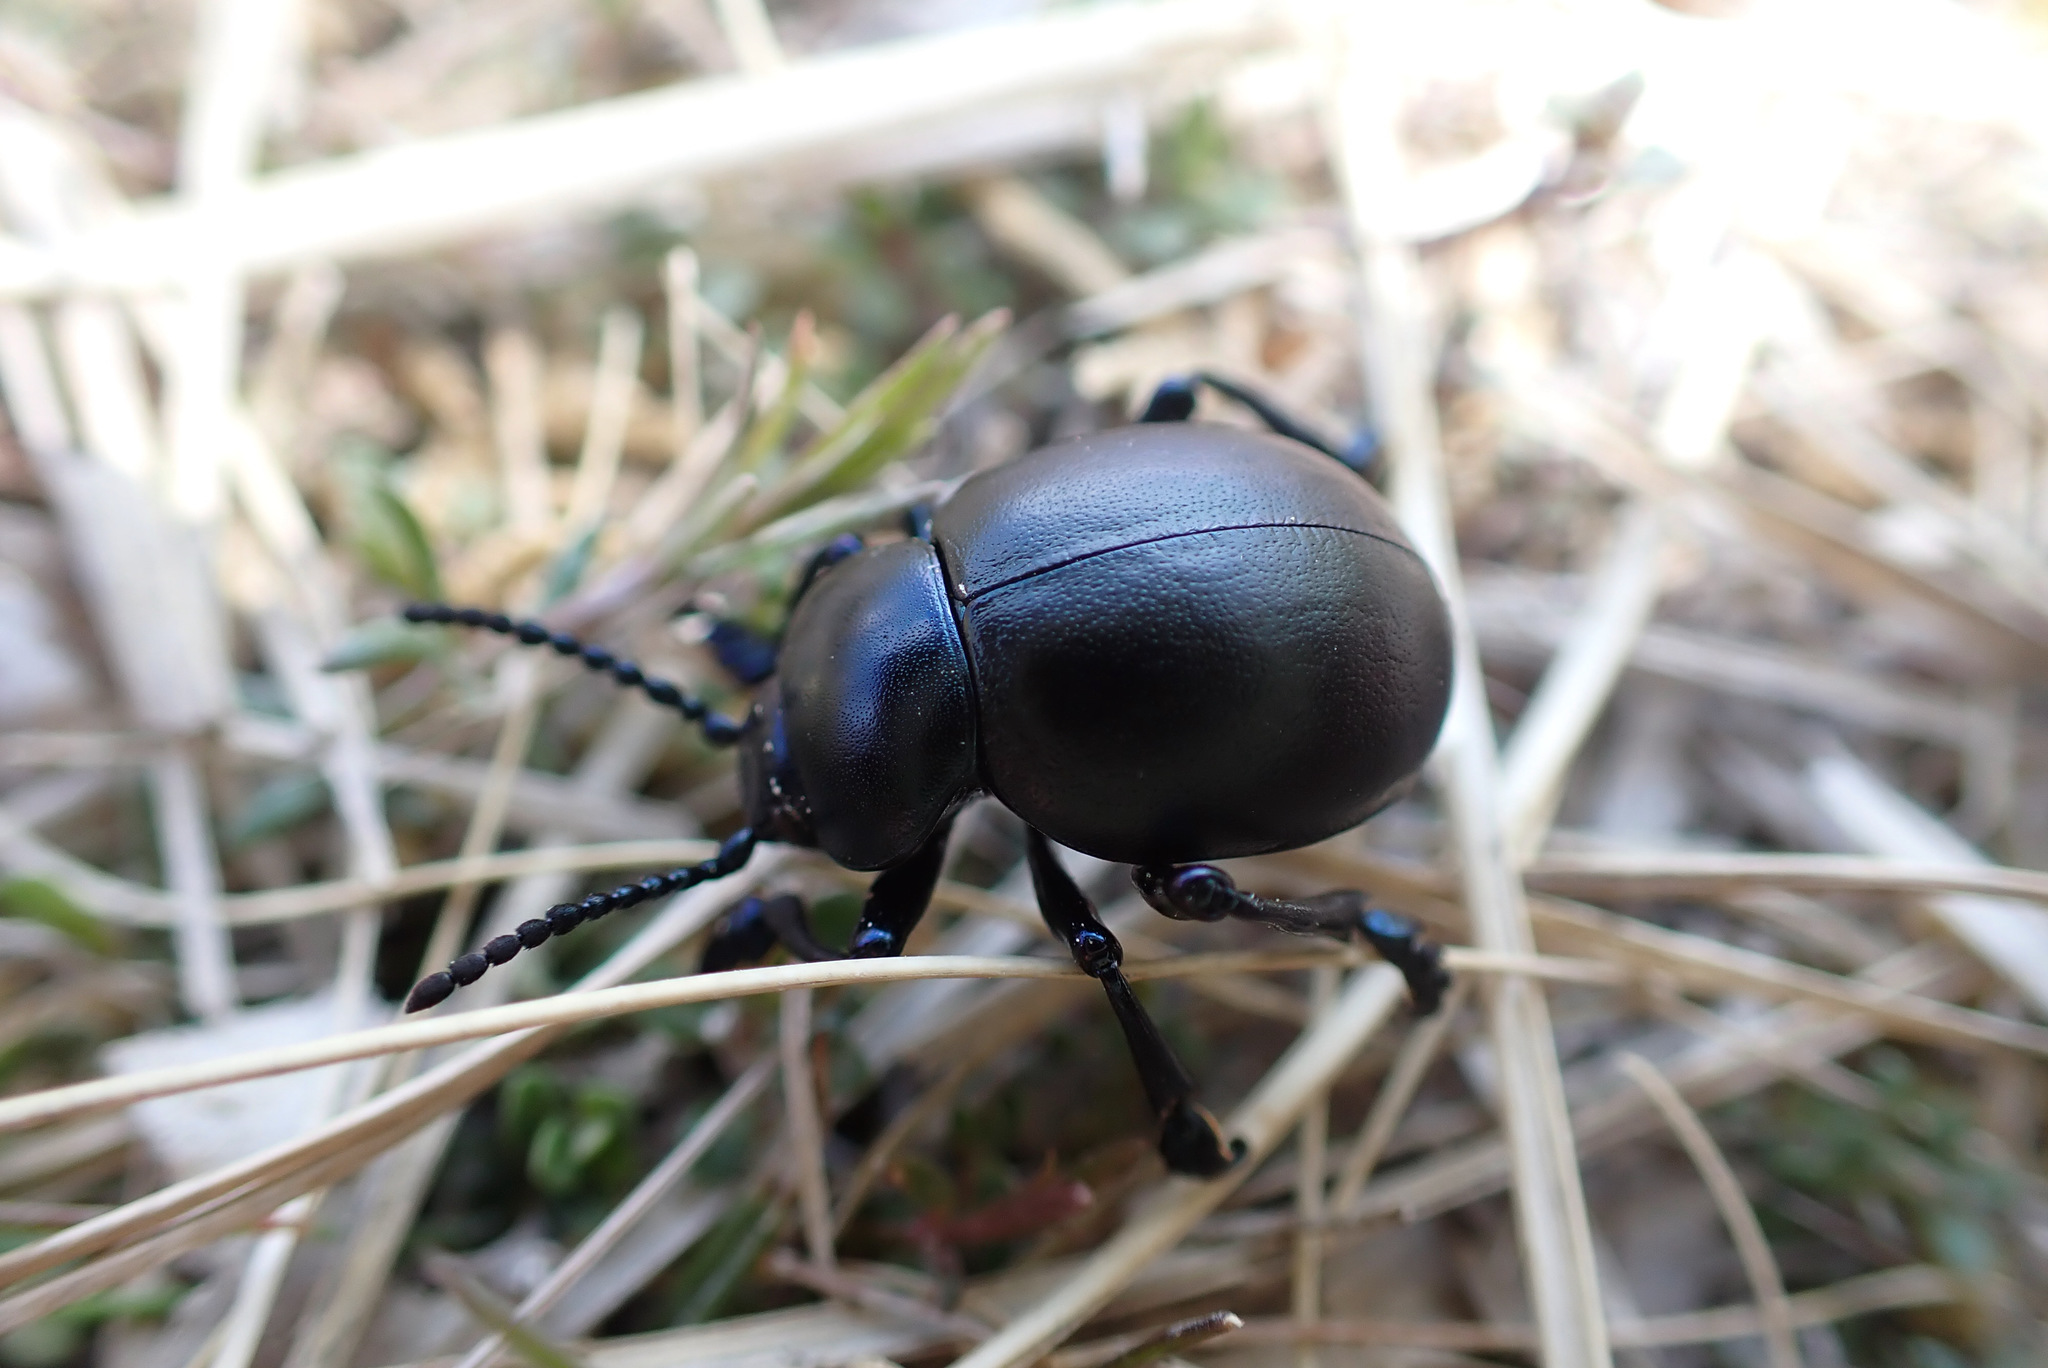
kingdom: Animalia
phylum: Arthropoda
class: Insecta
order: Coleoptera
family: Chrysomelidae
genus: Timarcha
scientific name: Timarcha tenebricosa
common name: Bloody-nosed beetle
